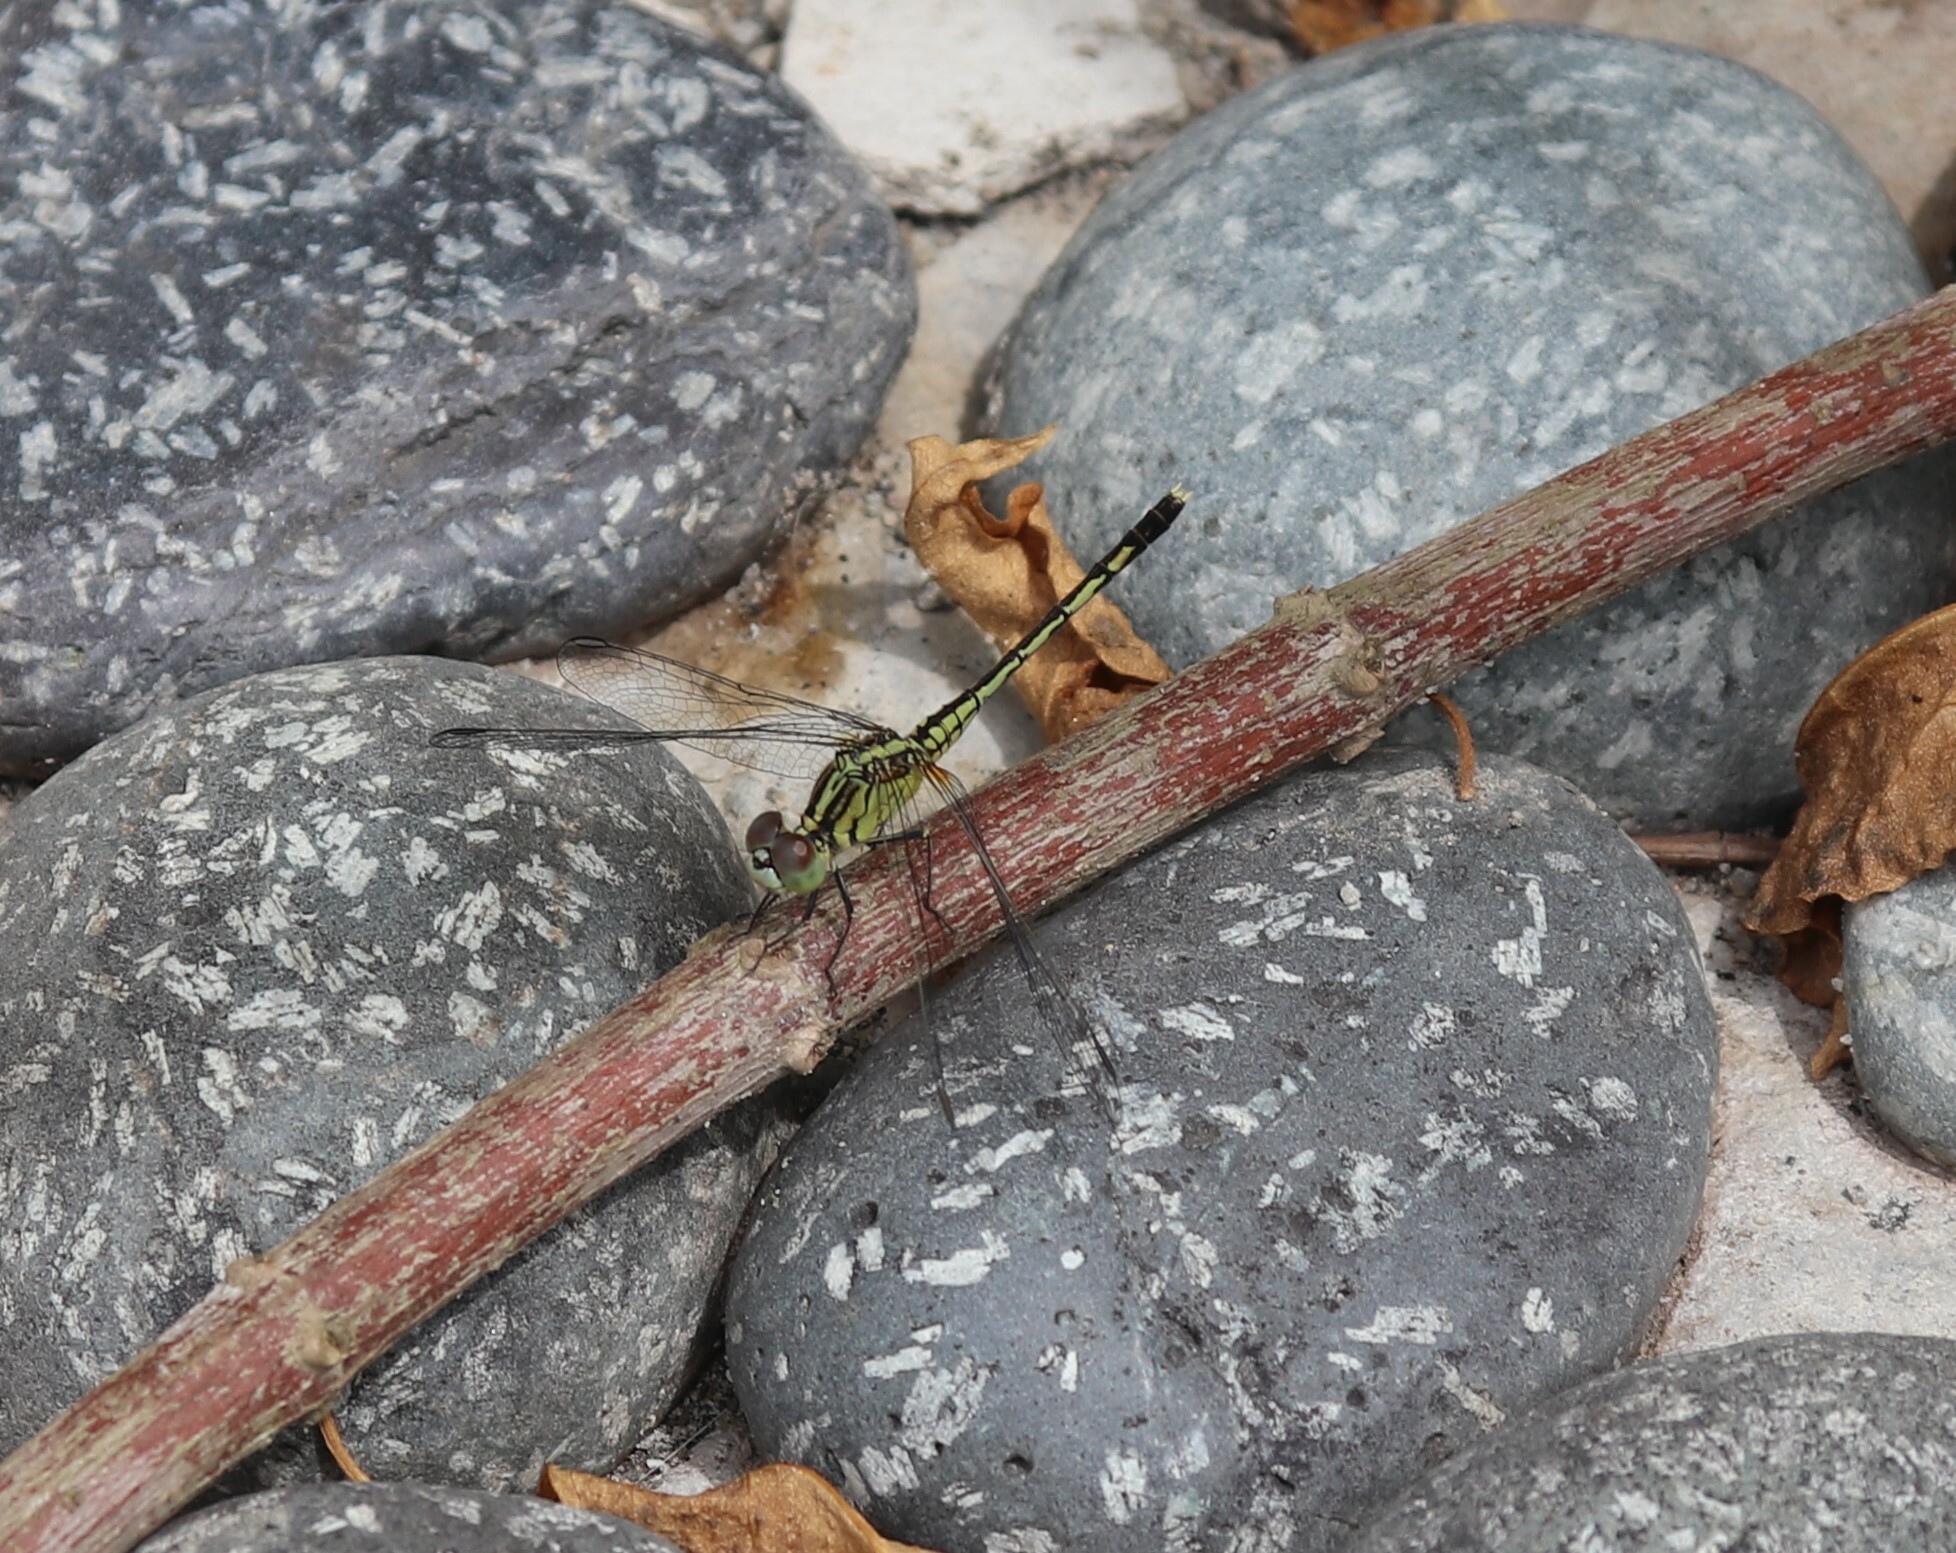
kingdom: Animalia
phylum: Arthropoda
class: Insecta
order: Odonata
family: Libellulidae
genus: Diplacodes
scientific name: Diplacodes trivialis
